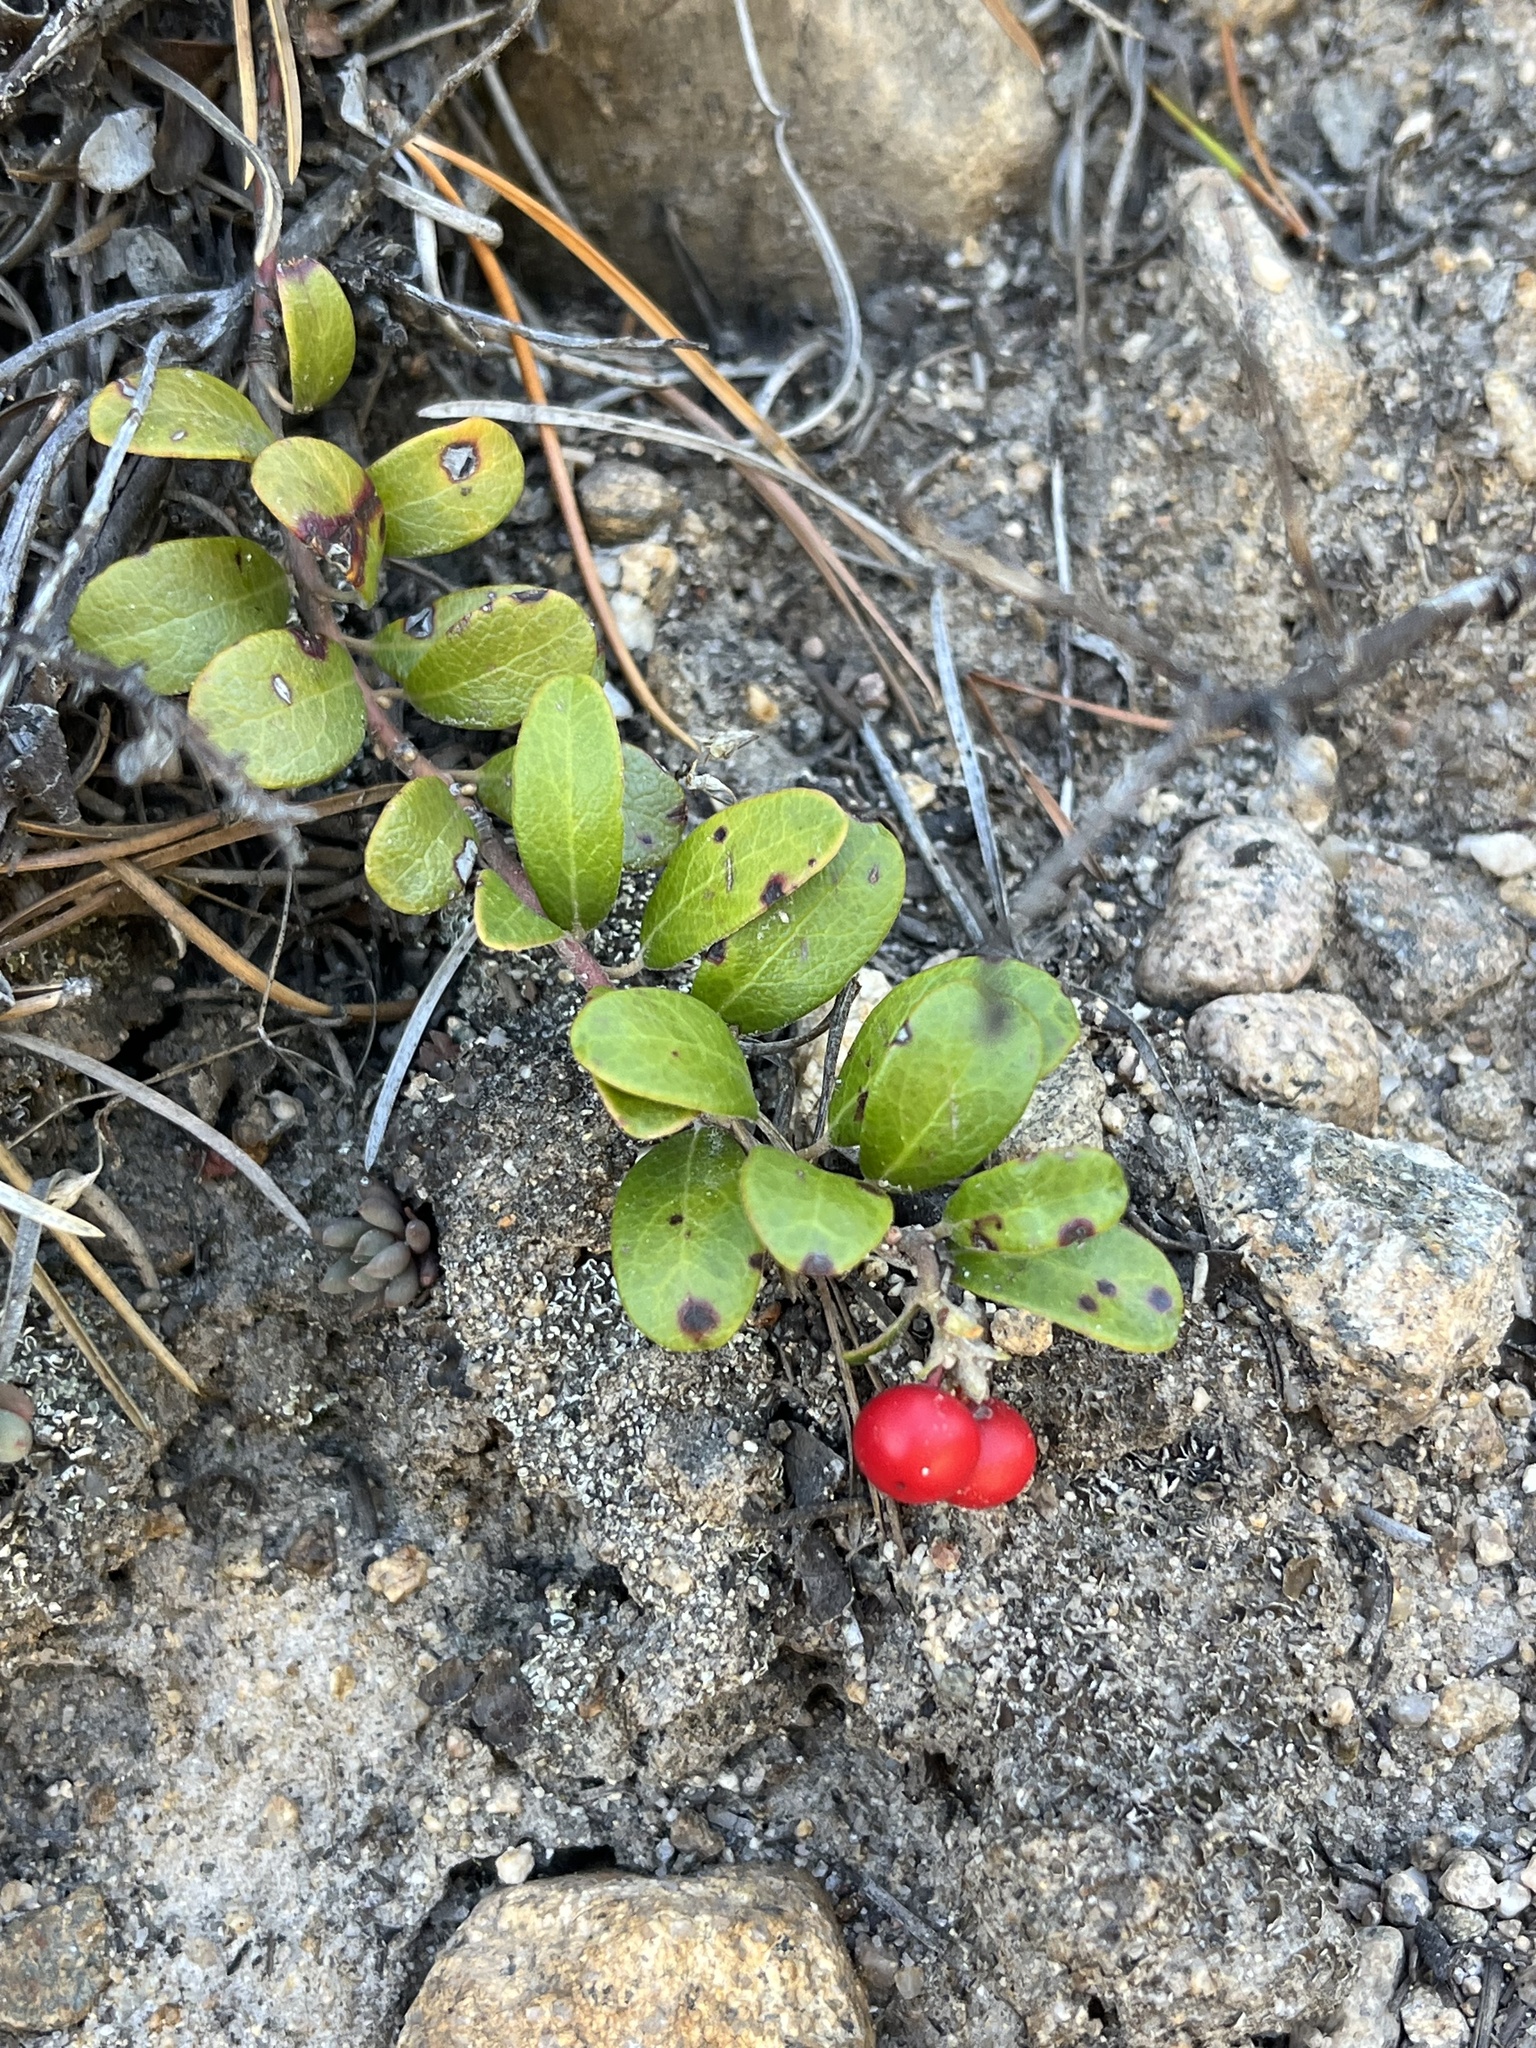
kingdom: Plantae
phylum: Tracheophyta
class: Magnoliopsida
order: Ericales
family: Ericaceae
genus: Arctostaphylos
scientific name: Arctostaphylos uva-ursi
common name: Bearberry
